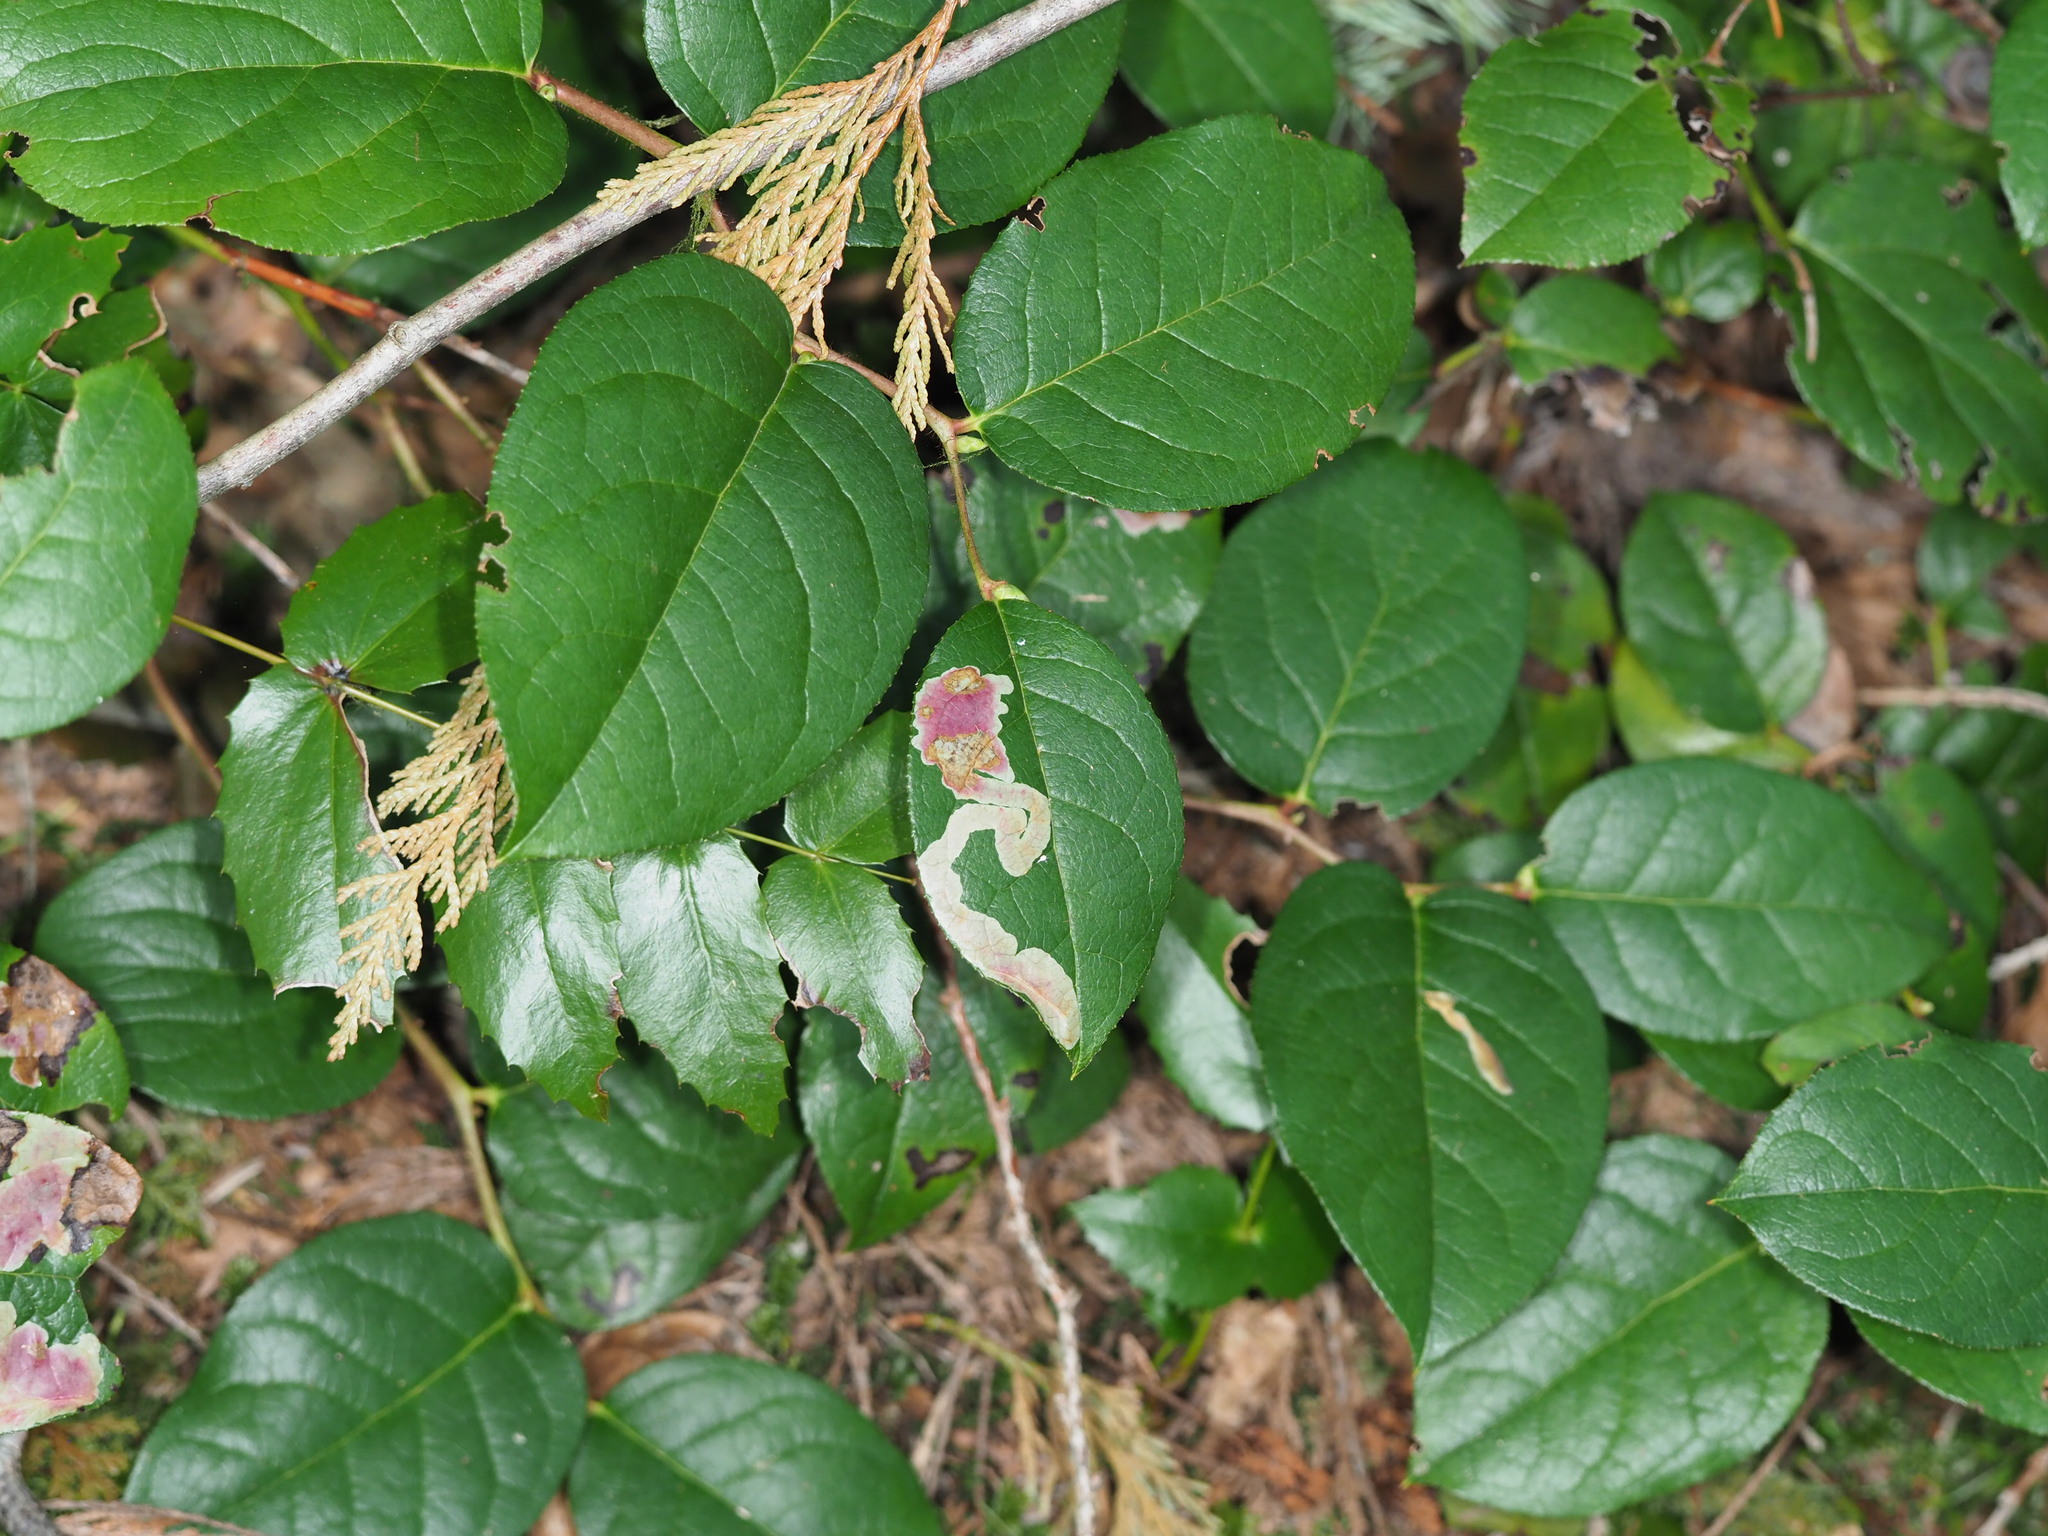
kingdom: Animalia
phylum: Arthropoda
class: Insecta
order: Lepidoptera
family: Gracillariidae
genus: Cameraria
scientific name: Cameraria gaultheriella
